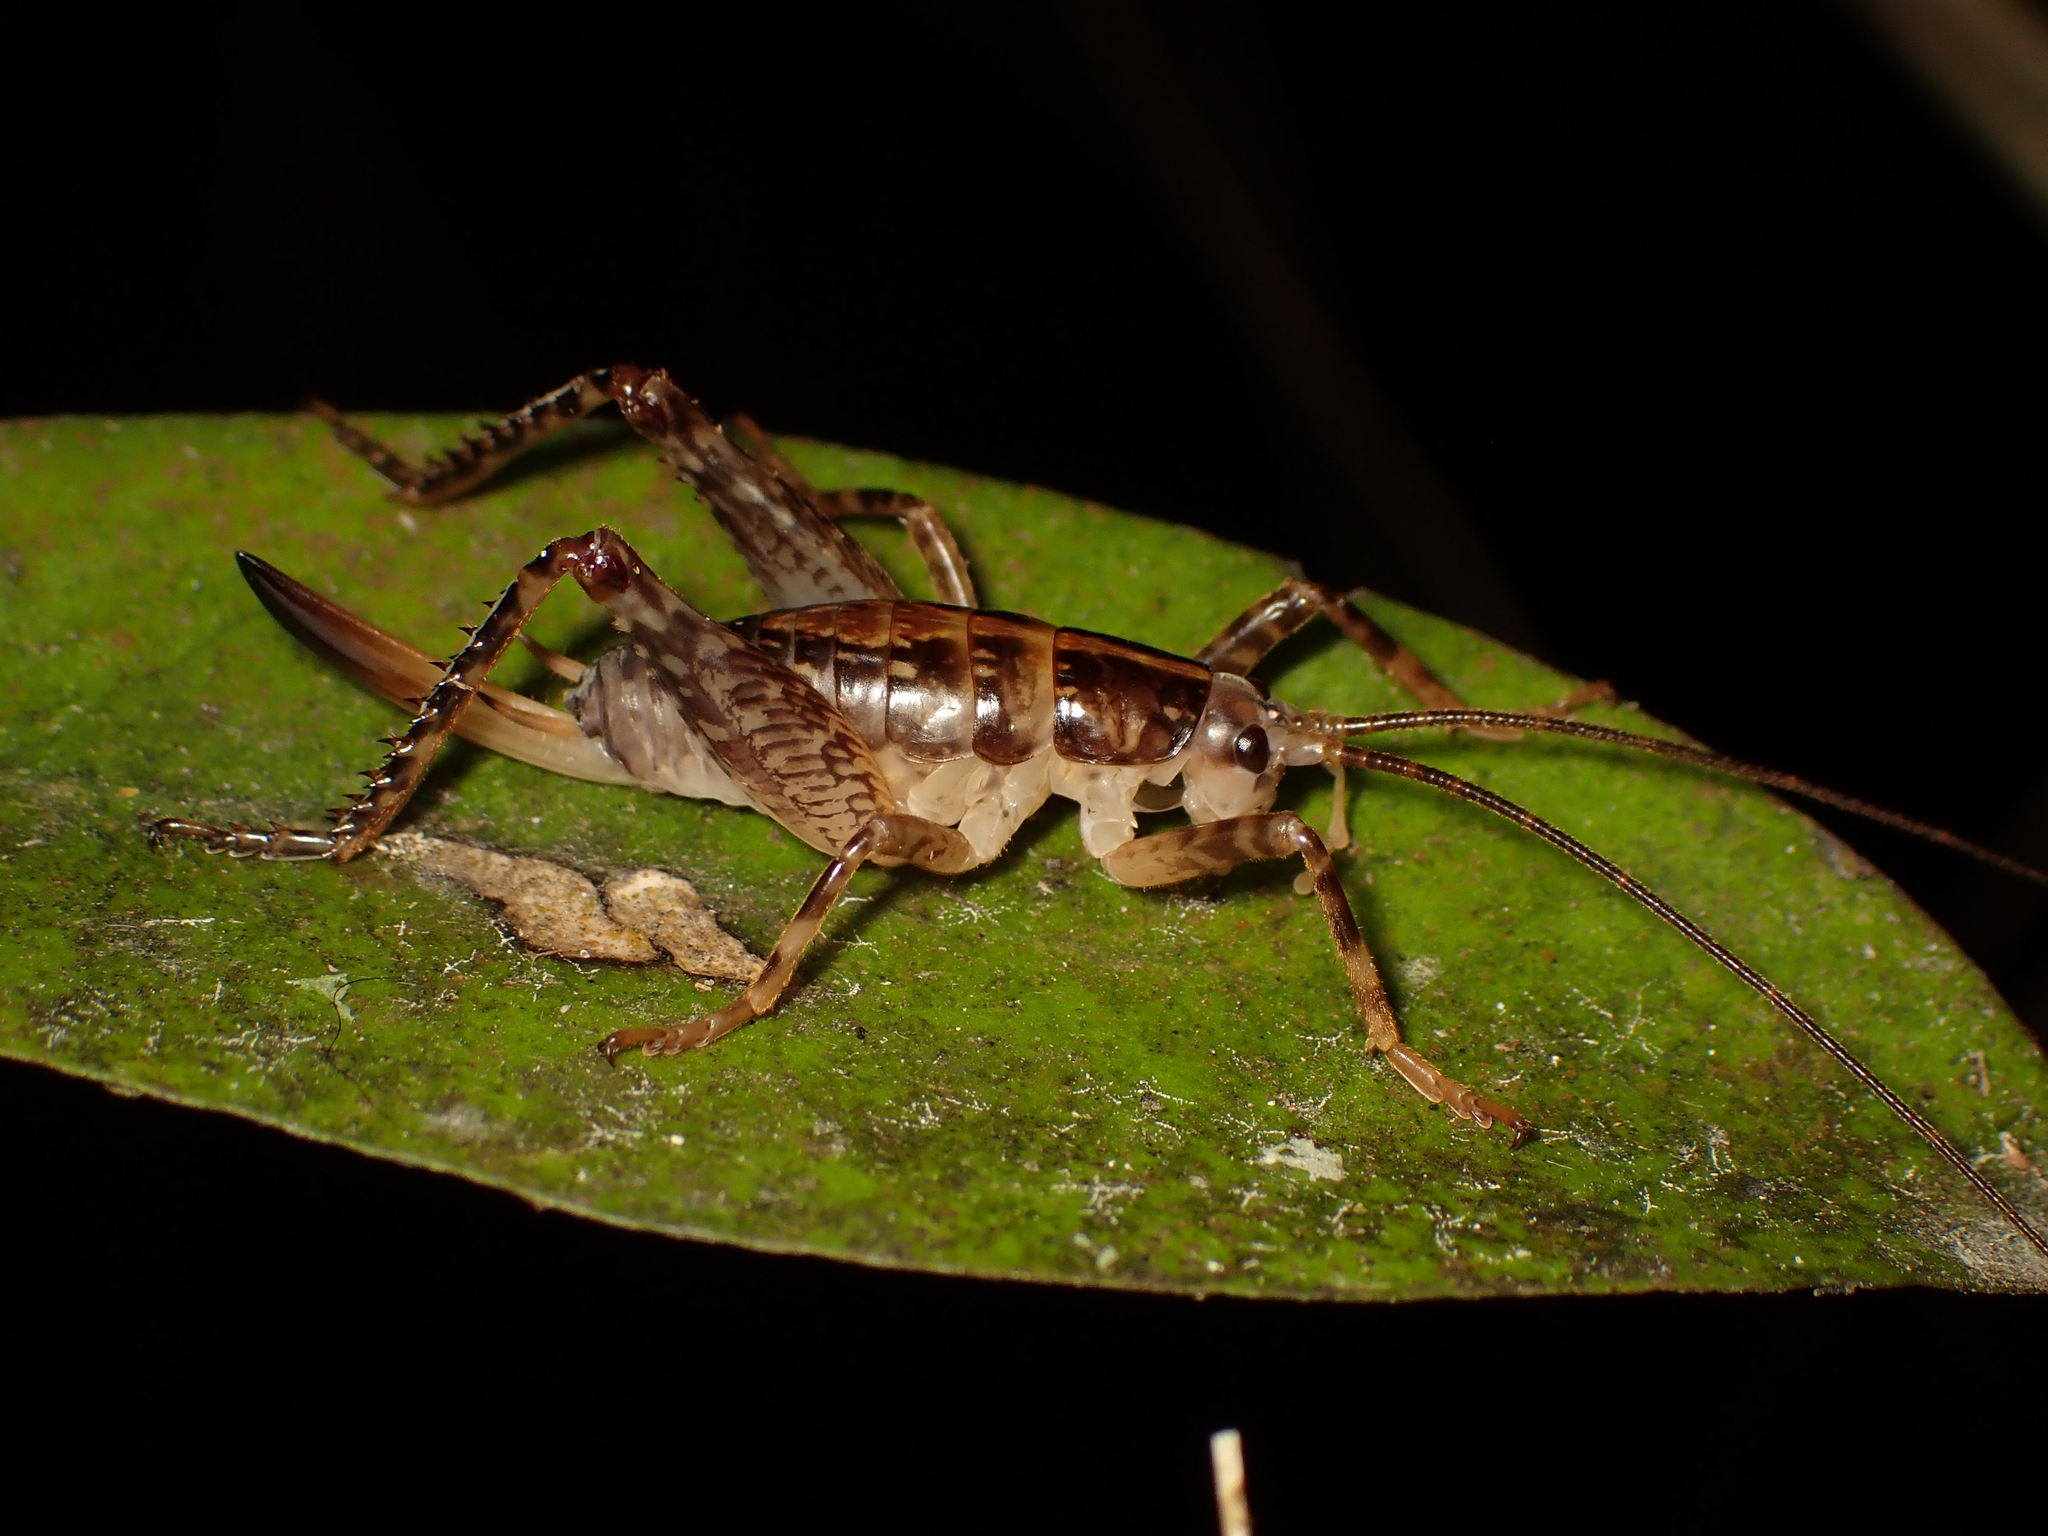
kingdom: Animalia
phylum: Arthropoda
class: Insecta
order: Orthoptera
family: Rhaphidophoridae
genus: Talitropsis
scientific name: Talitropsis sedilloti
